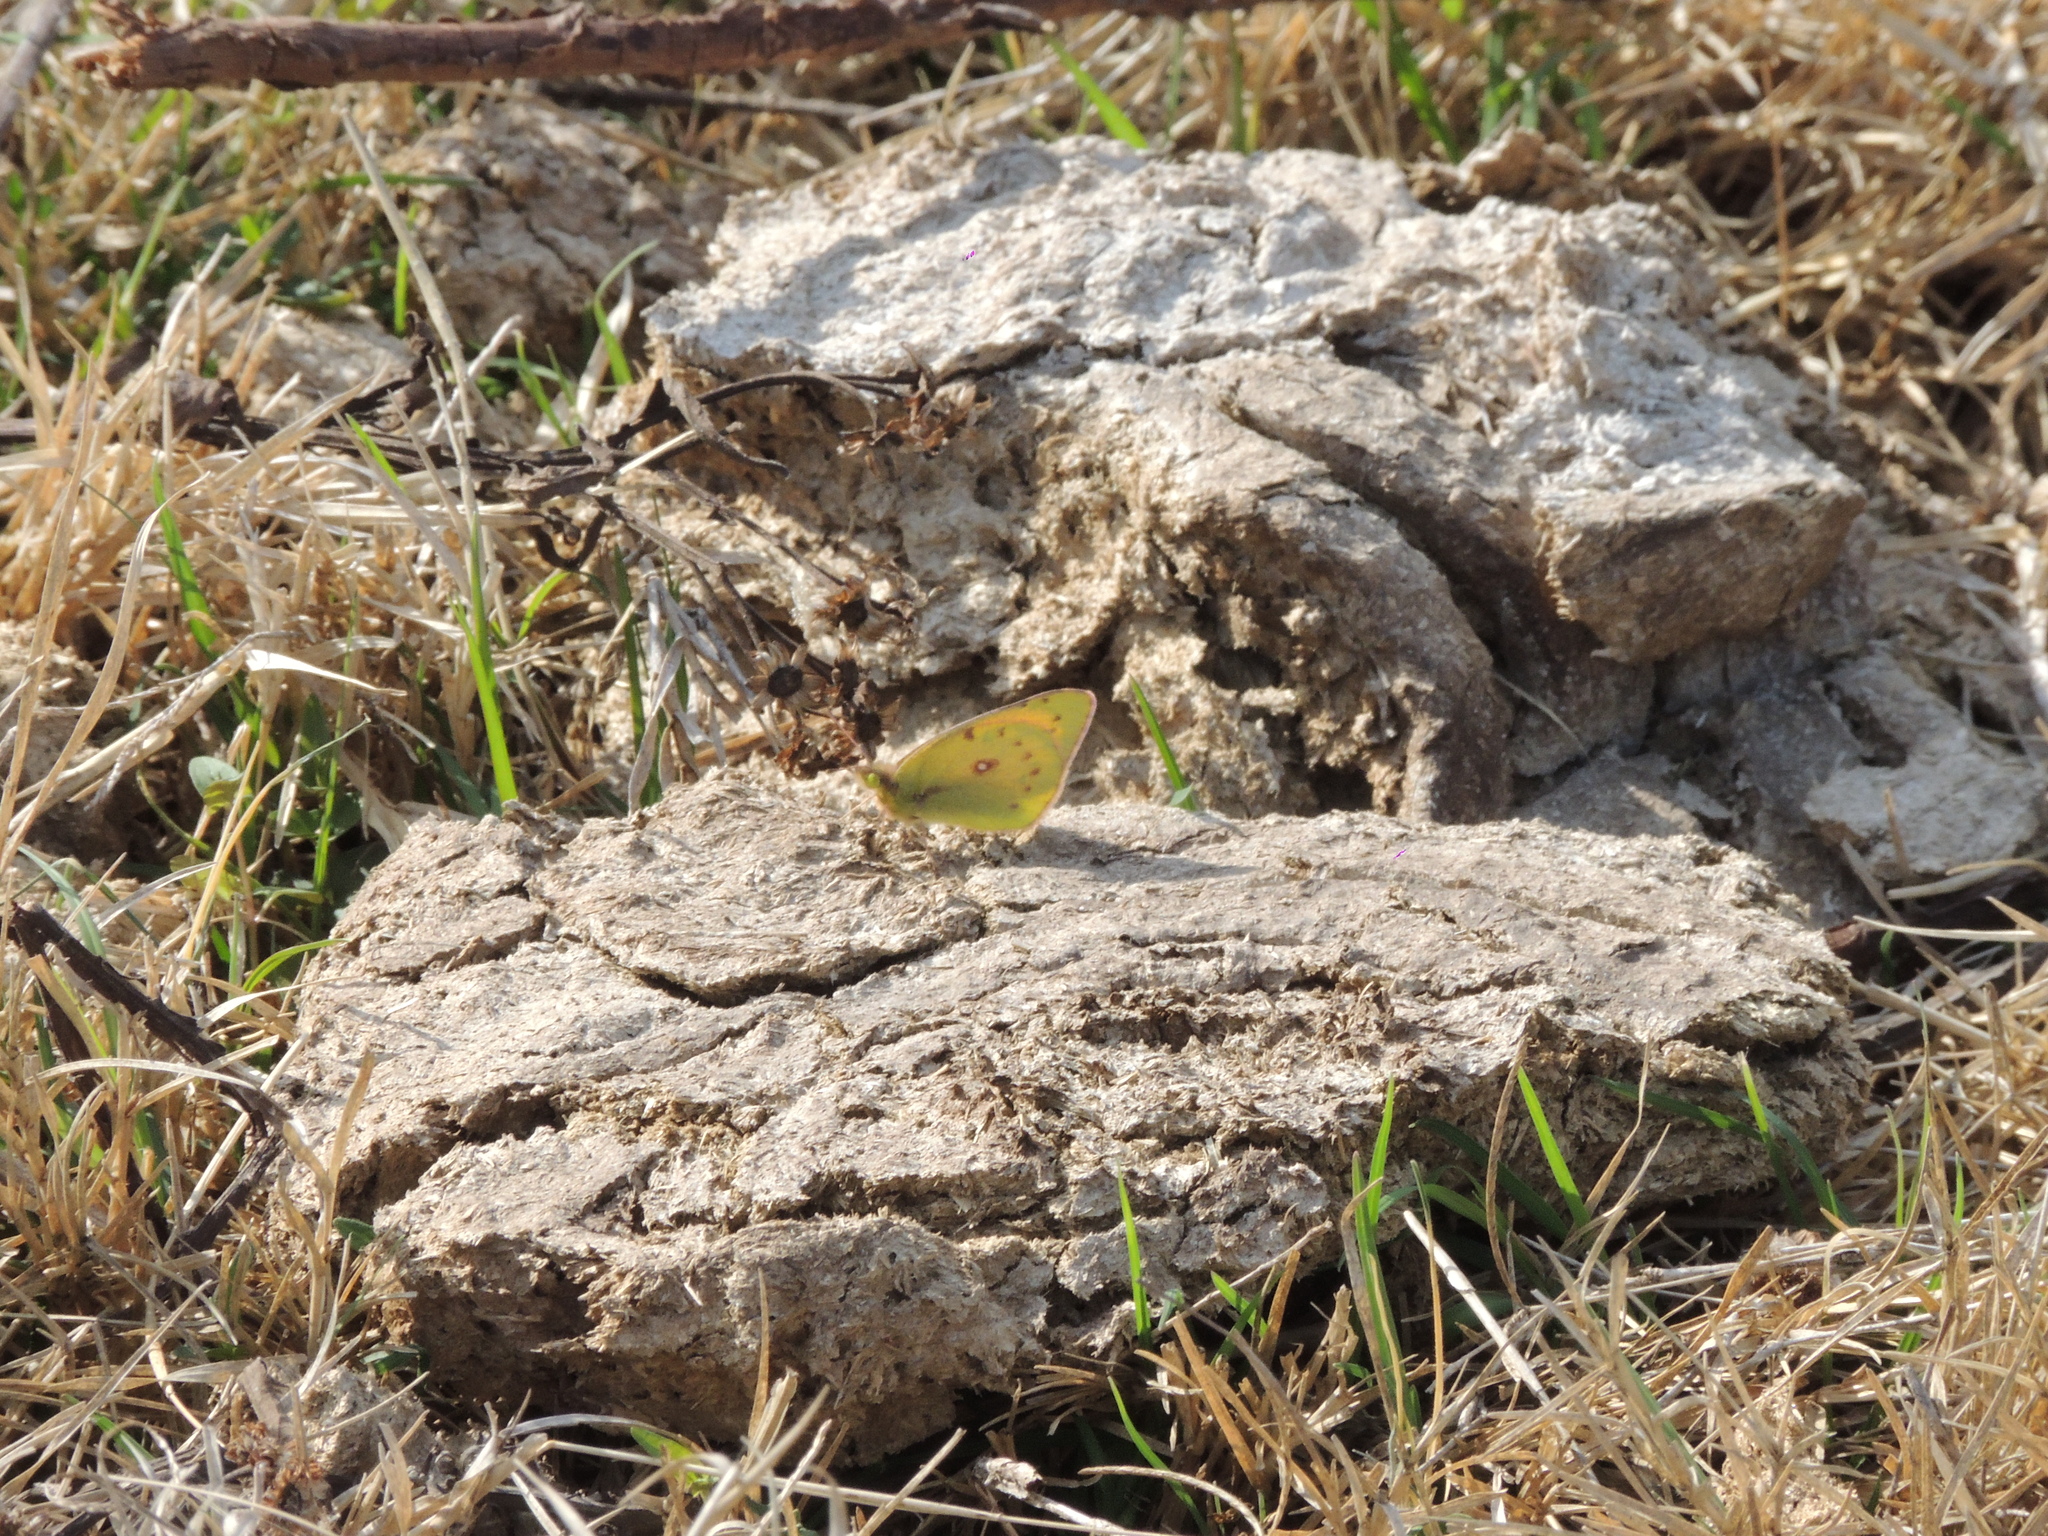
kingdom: Animalia
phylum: Arthropoda
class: Insecta
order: Lepidoptera
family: Pieridae
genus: Colias
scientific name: Colias lesbia
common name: Lesbia clouded yellow
